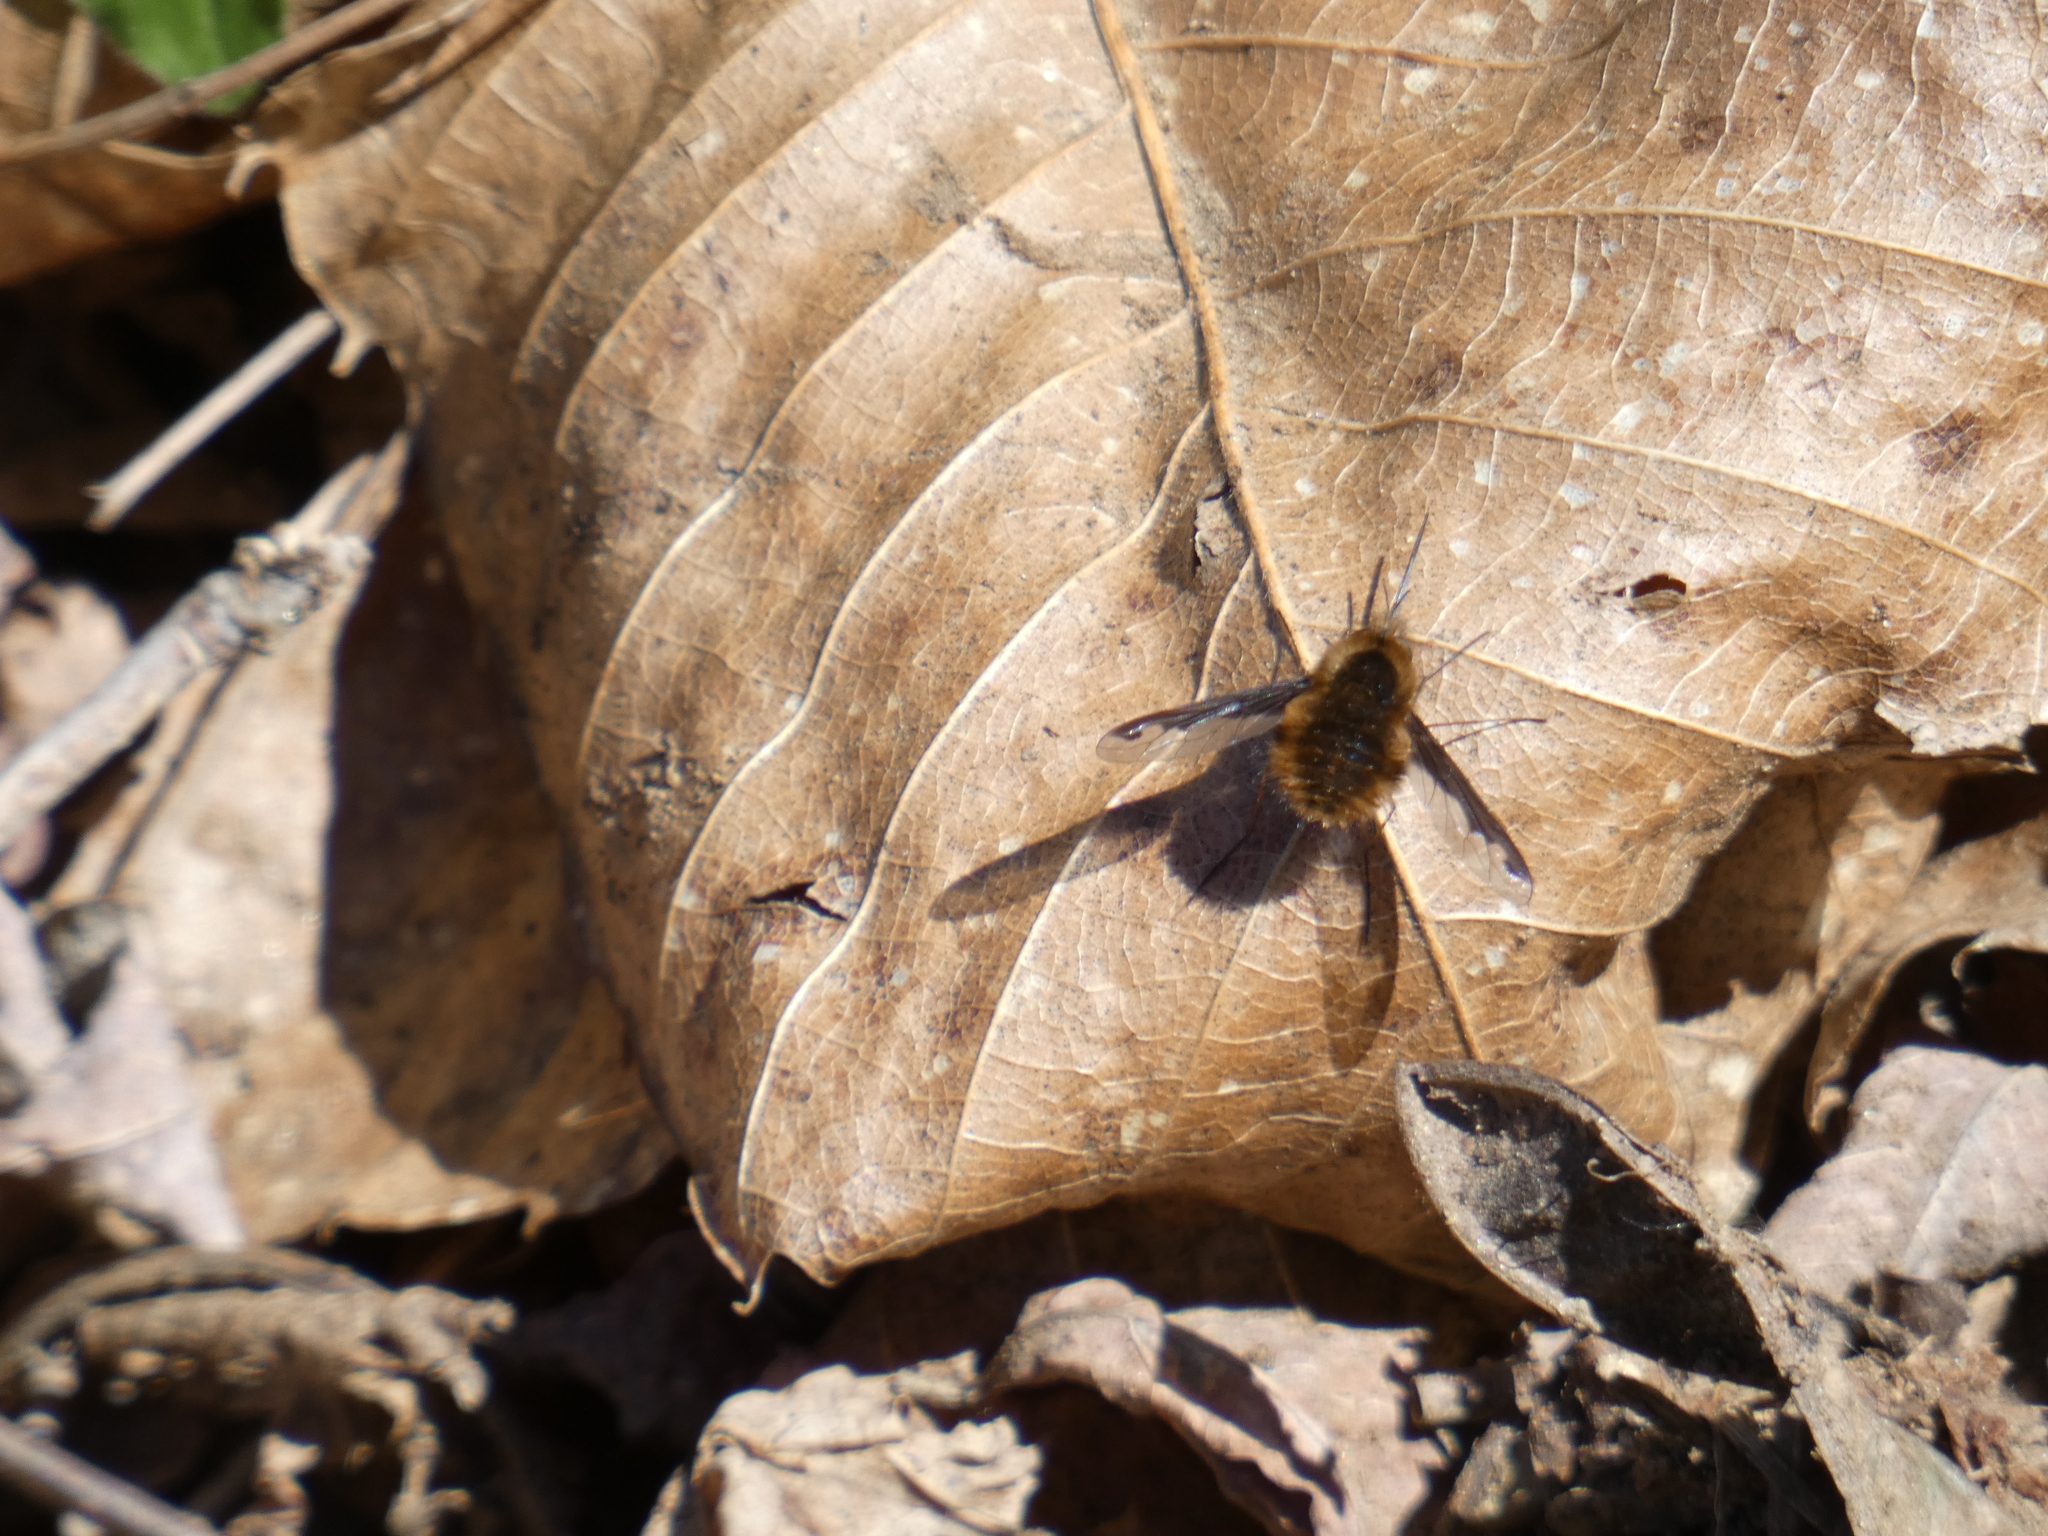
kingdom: Animalia
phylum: Arthropoda
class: Insecta
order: Diptera
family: Bombyliidae
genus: Bombylius
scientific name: Bombylius major
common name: Bee fly
